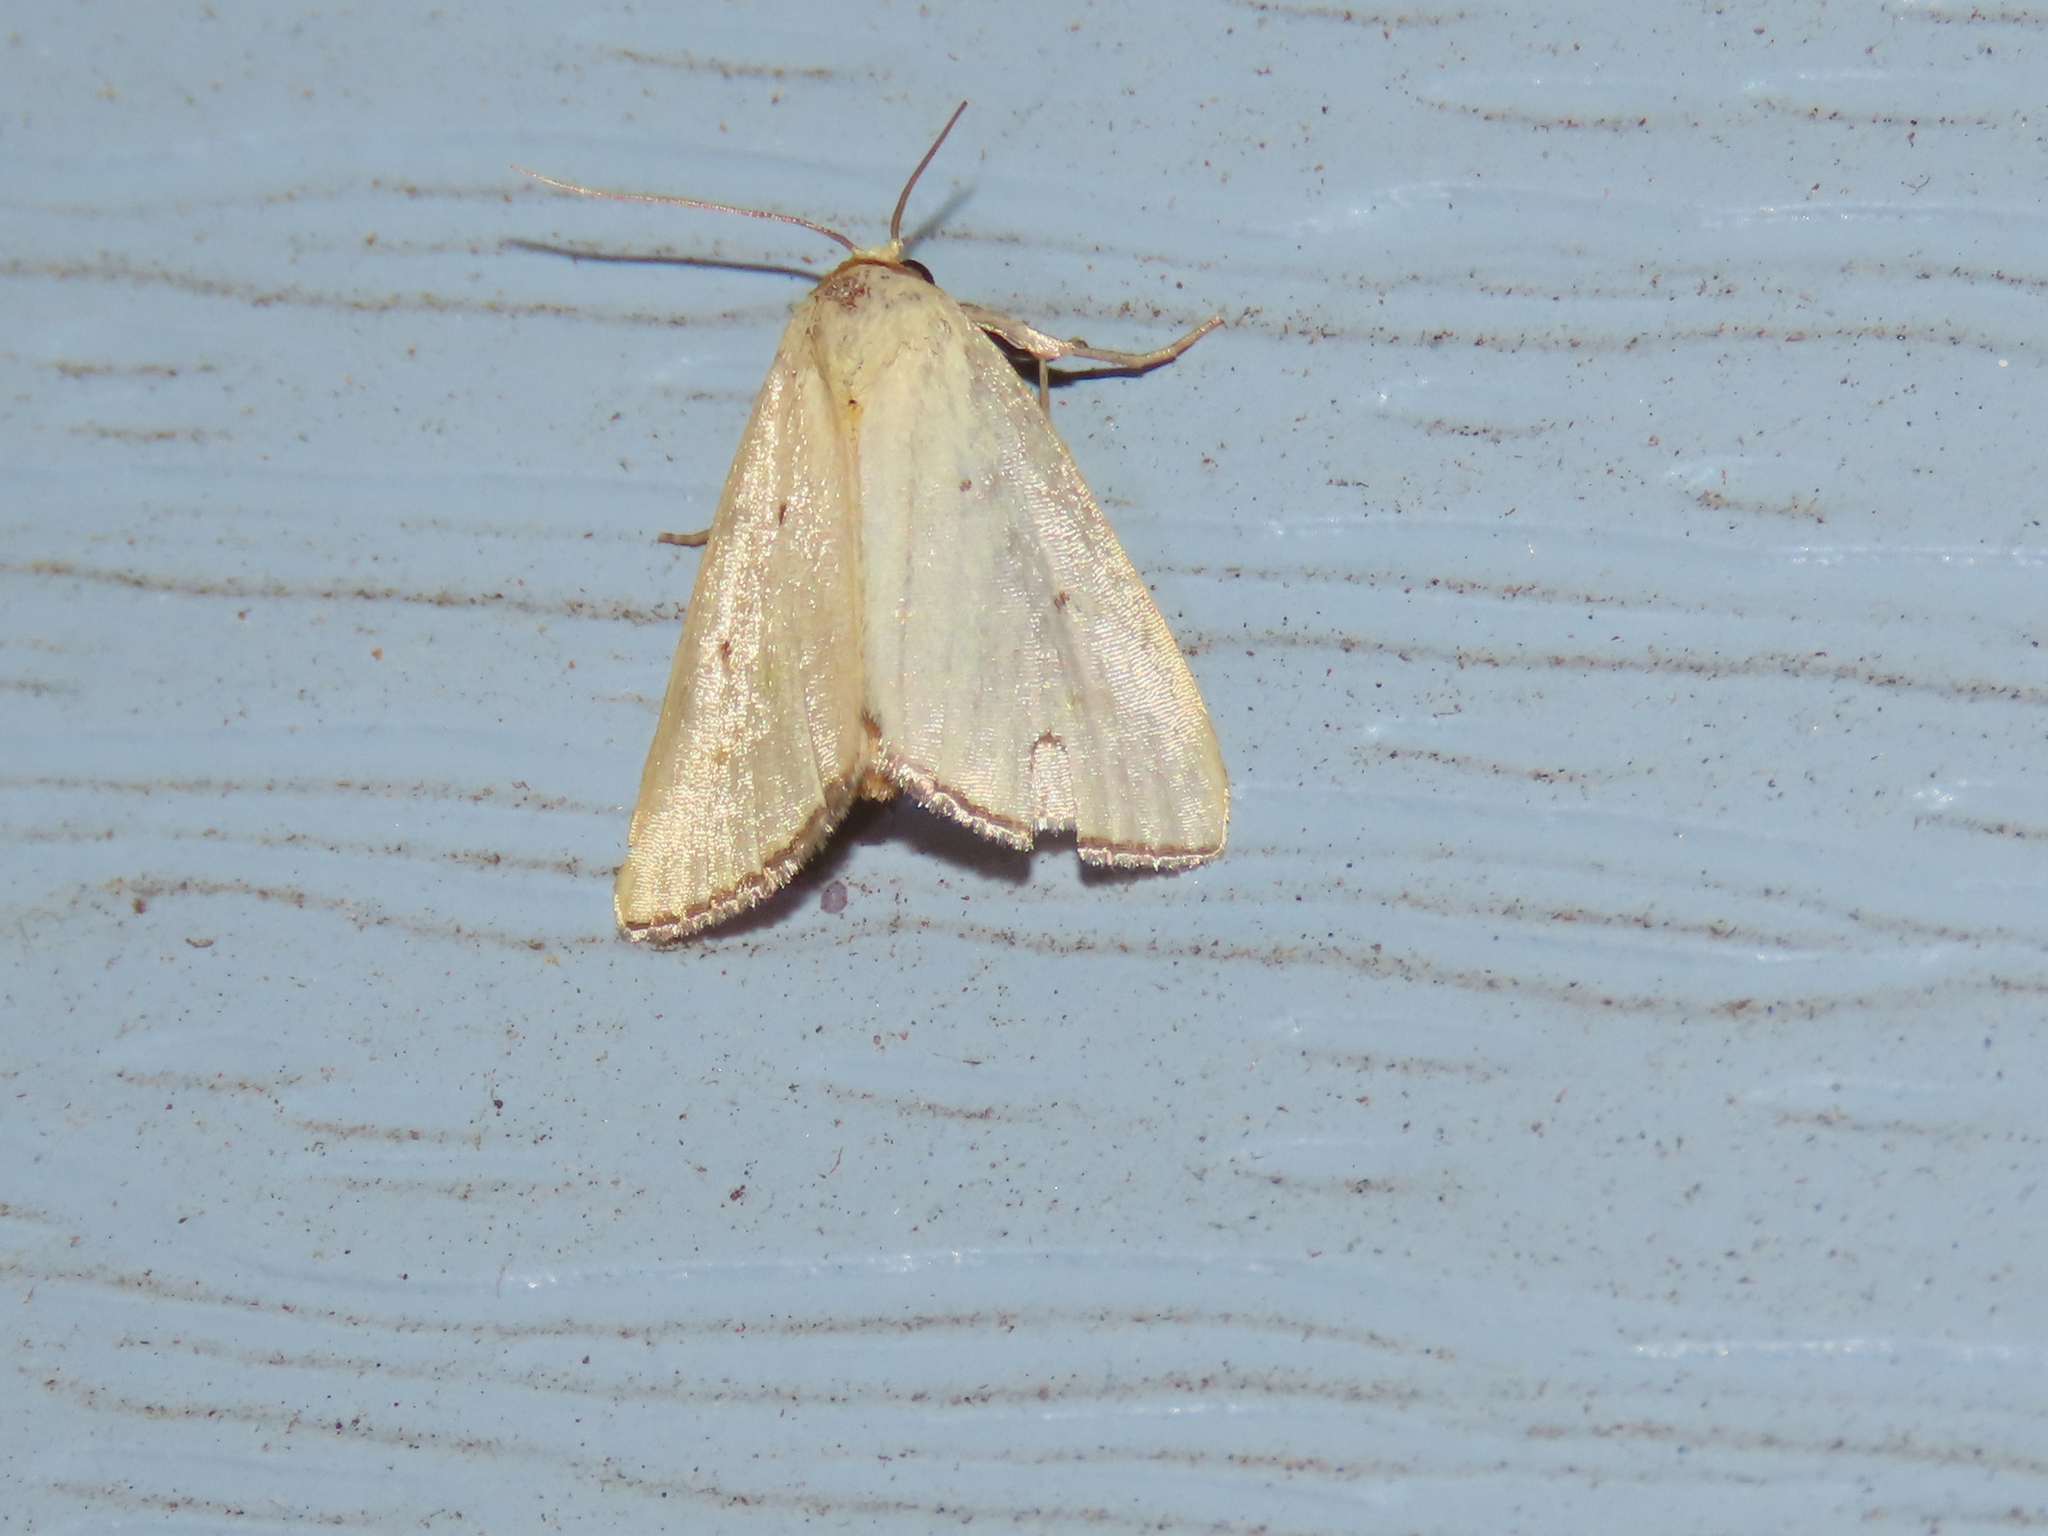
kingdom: Animalia
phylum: Arthropoda
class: Insecta
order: Lepidoptera
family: Noctuidae
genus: Marimatha
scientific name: Marimatha nigrofimbria
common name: Black-bordered lemon moth
